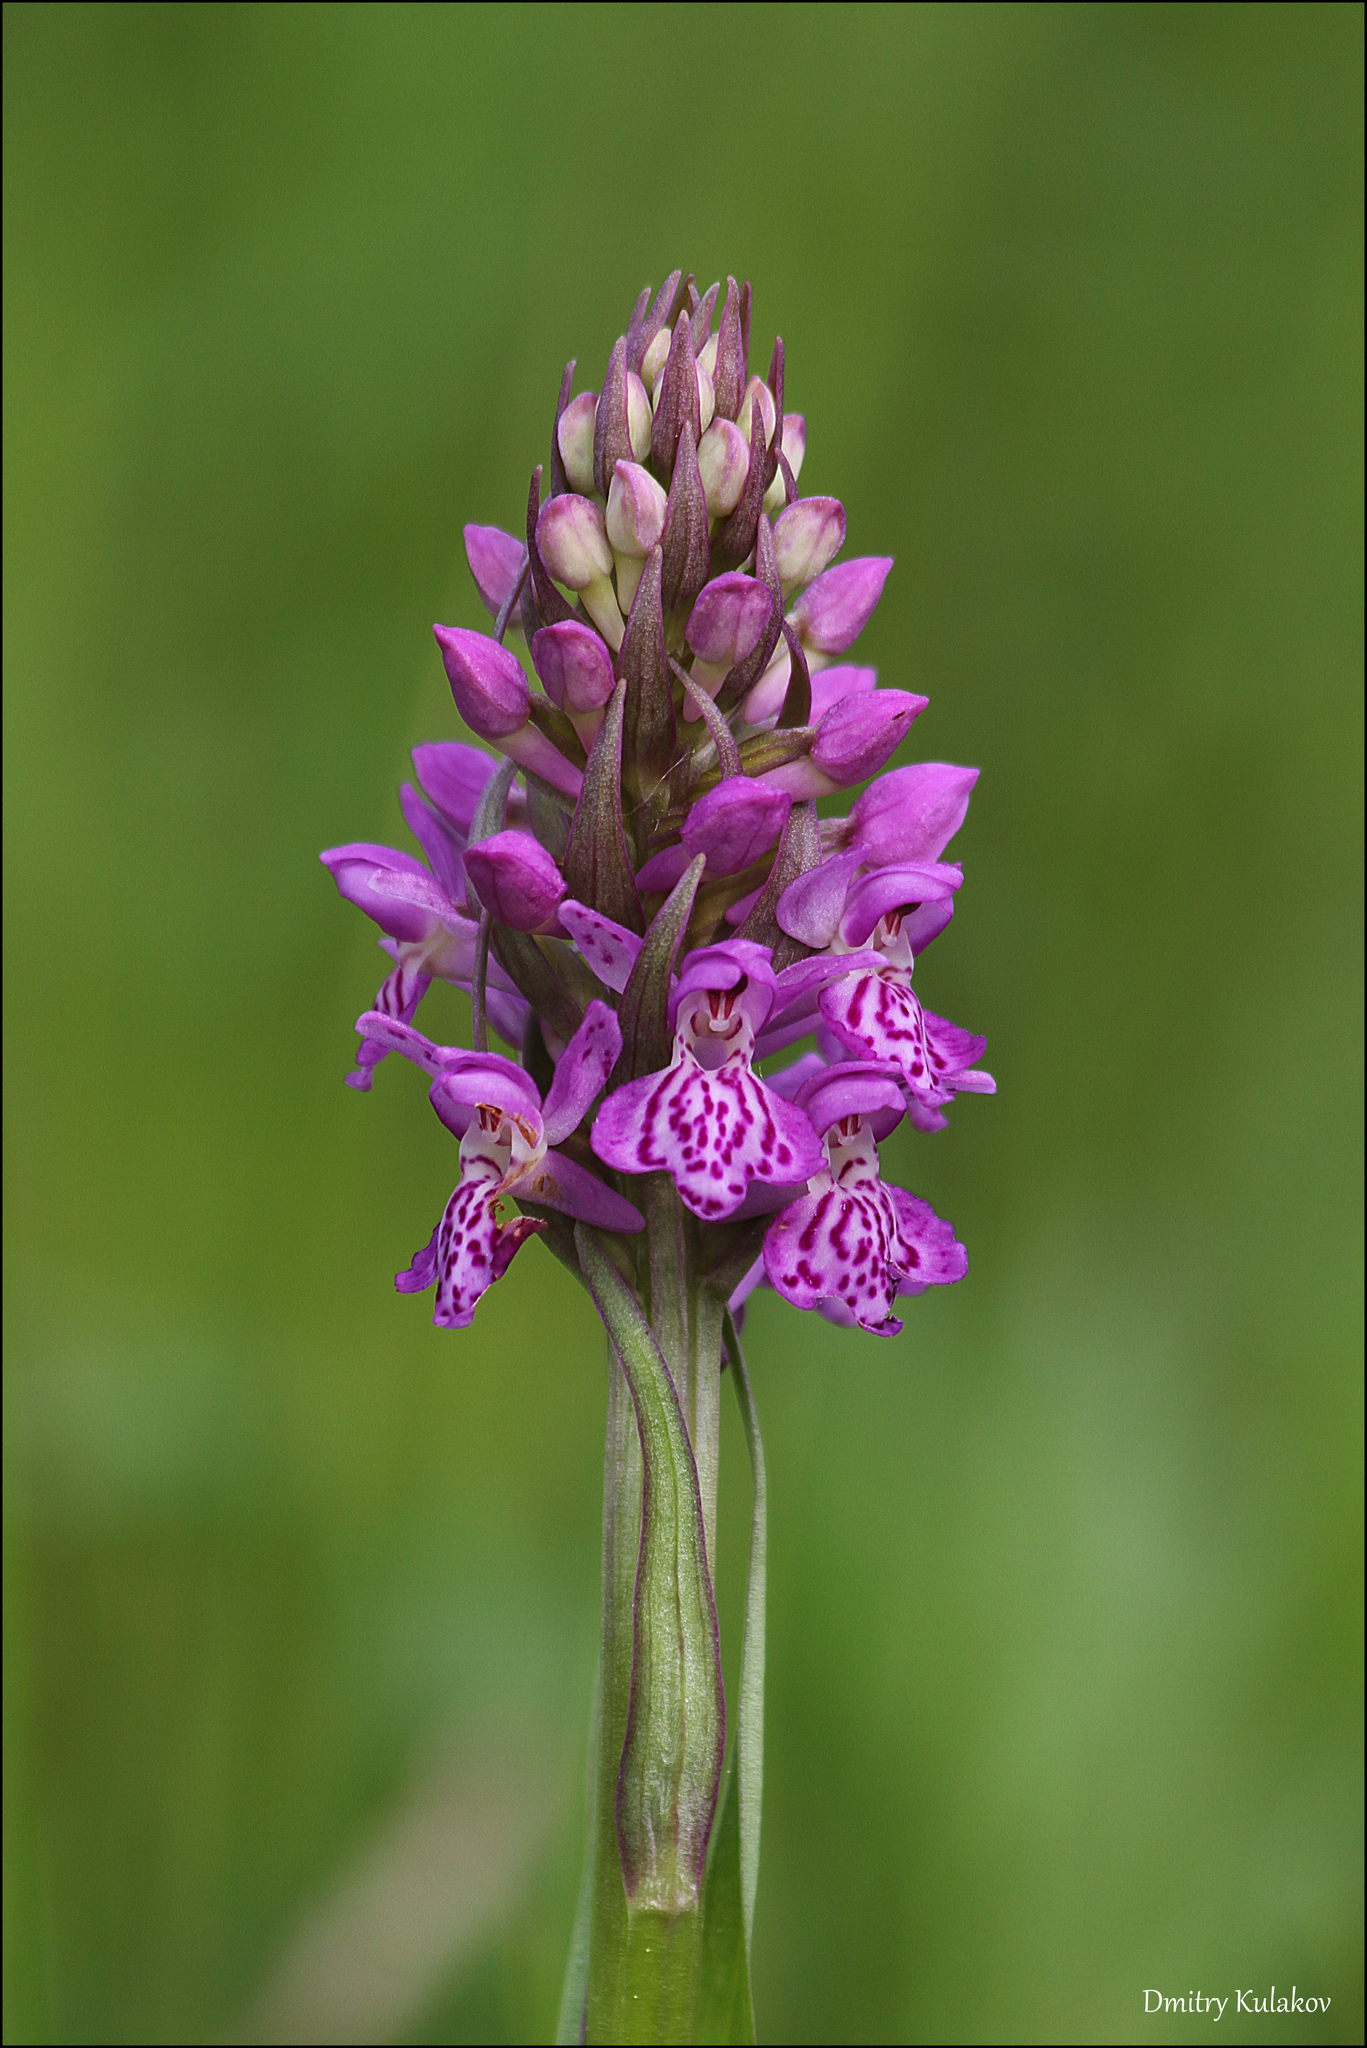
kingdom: Plantae
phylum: Tracheophyta
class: Liliopsida
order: Asparagales
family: Orchidaceae
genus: Dactylorhiza
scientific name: Dactylorhiza incarnata
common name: Early marsh-orchid
